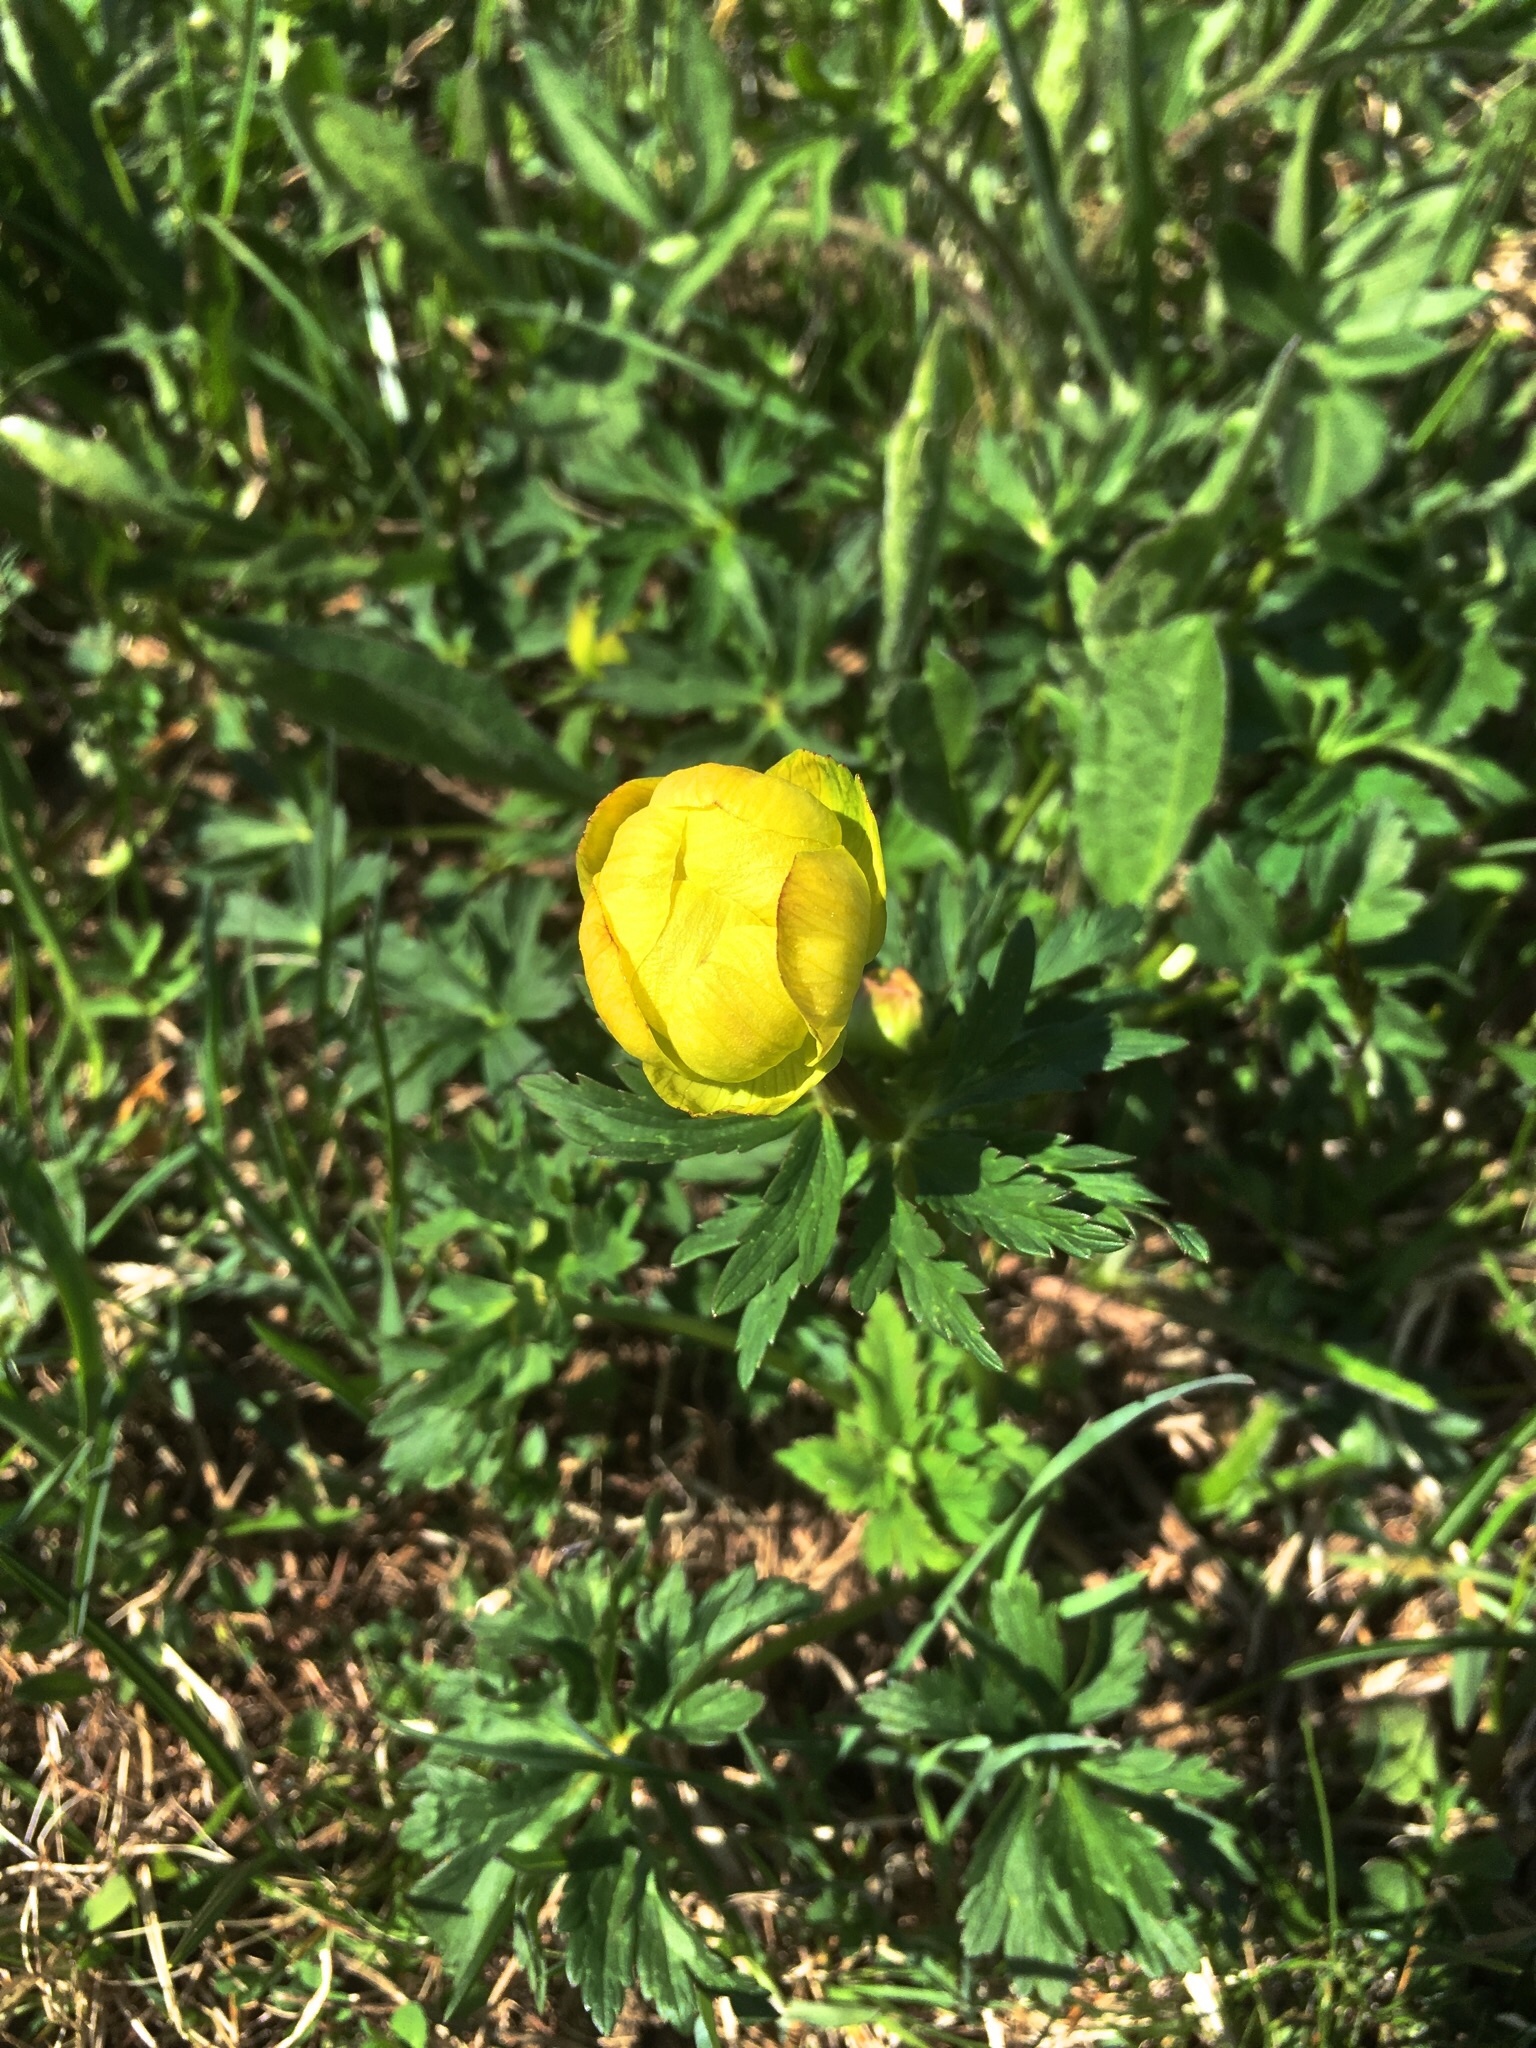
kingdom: Plantae
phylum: Tracheophyta
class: Magnoliopsida
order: Ranunculales
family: Ranunculaceae
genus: Trollius
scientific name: Trollius europaeus
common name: European globeflower
